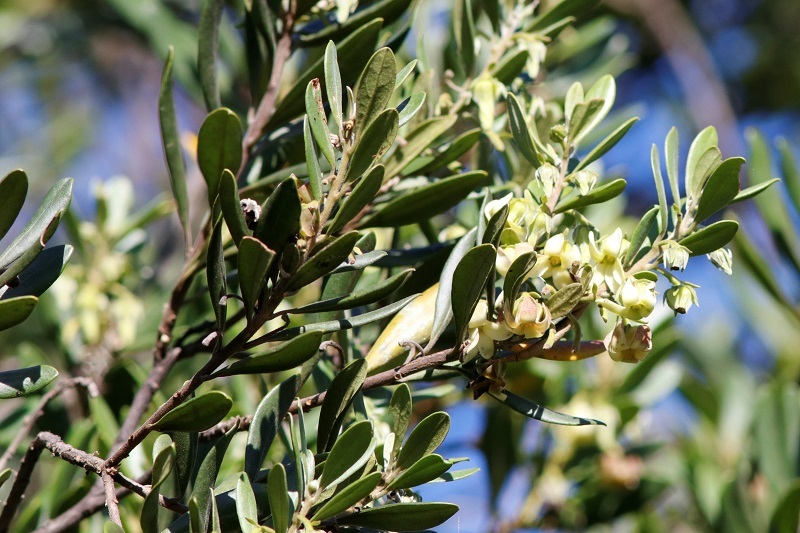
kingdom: Plantae
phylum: Tracheophyta
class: Magnoliopsida
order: Ericales
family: Ebenaceae
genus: Diospyros
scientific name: Diospyros dichrophylla
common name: Common star-apple
